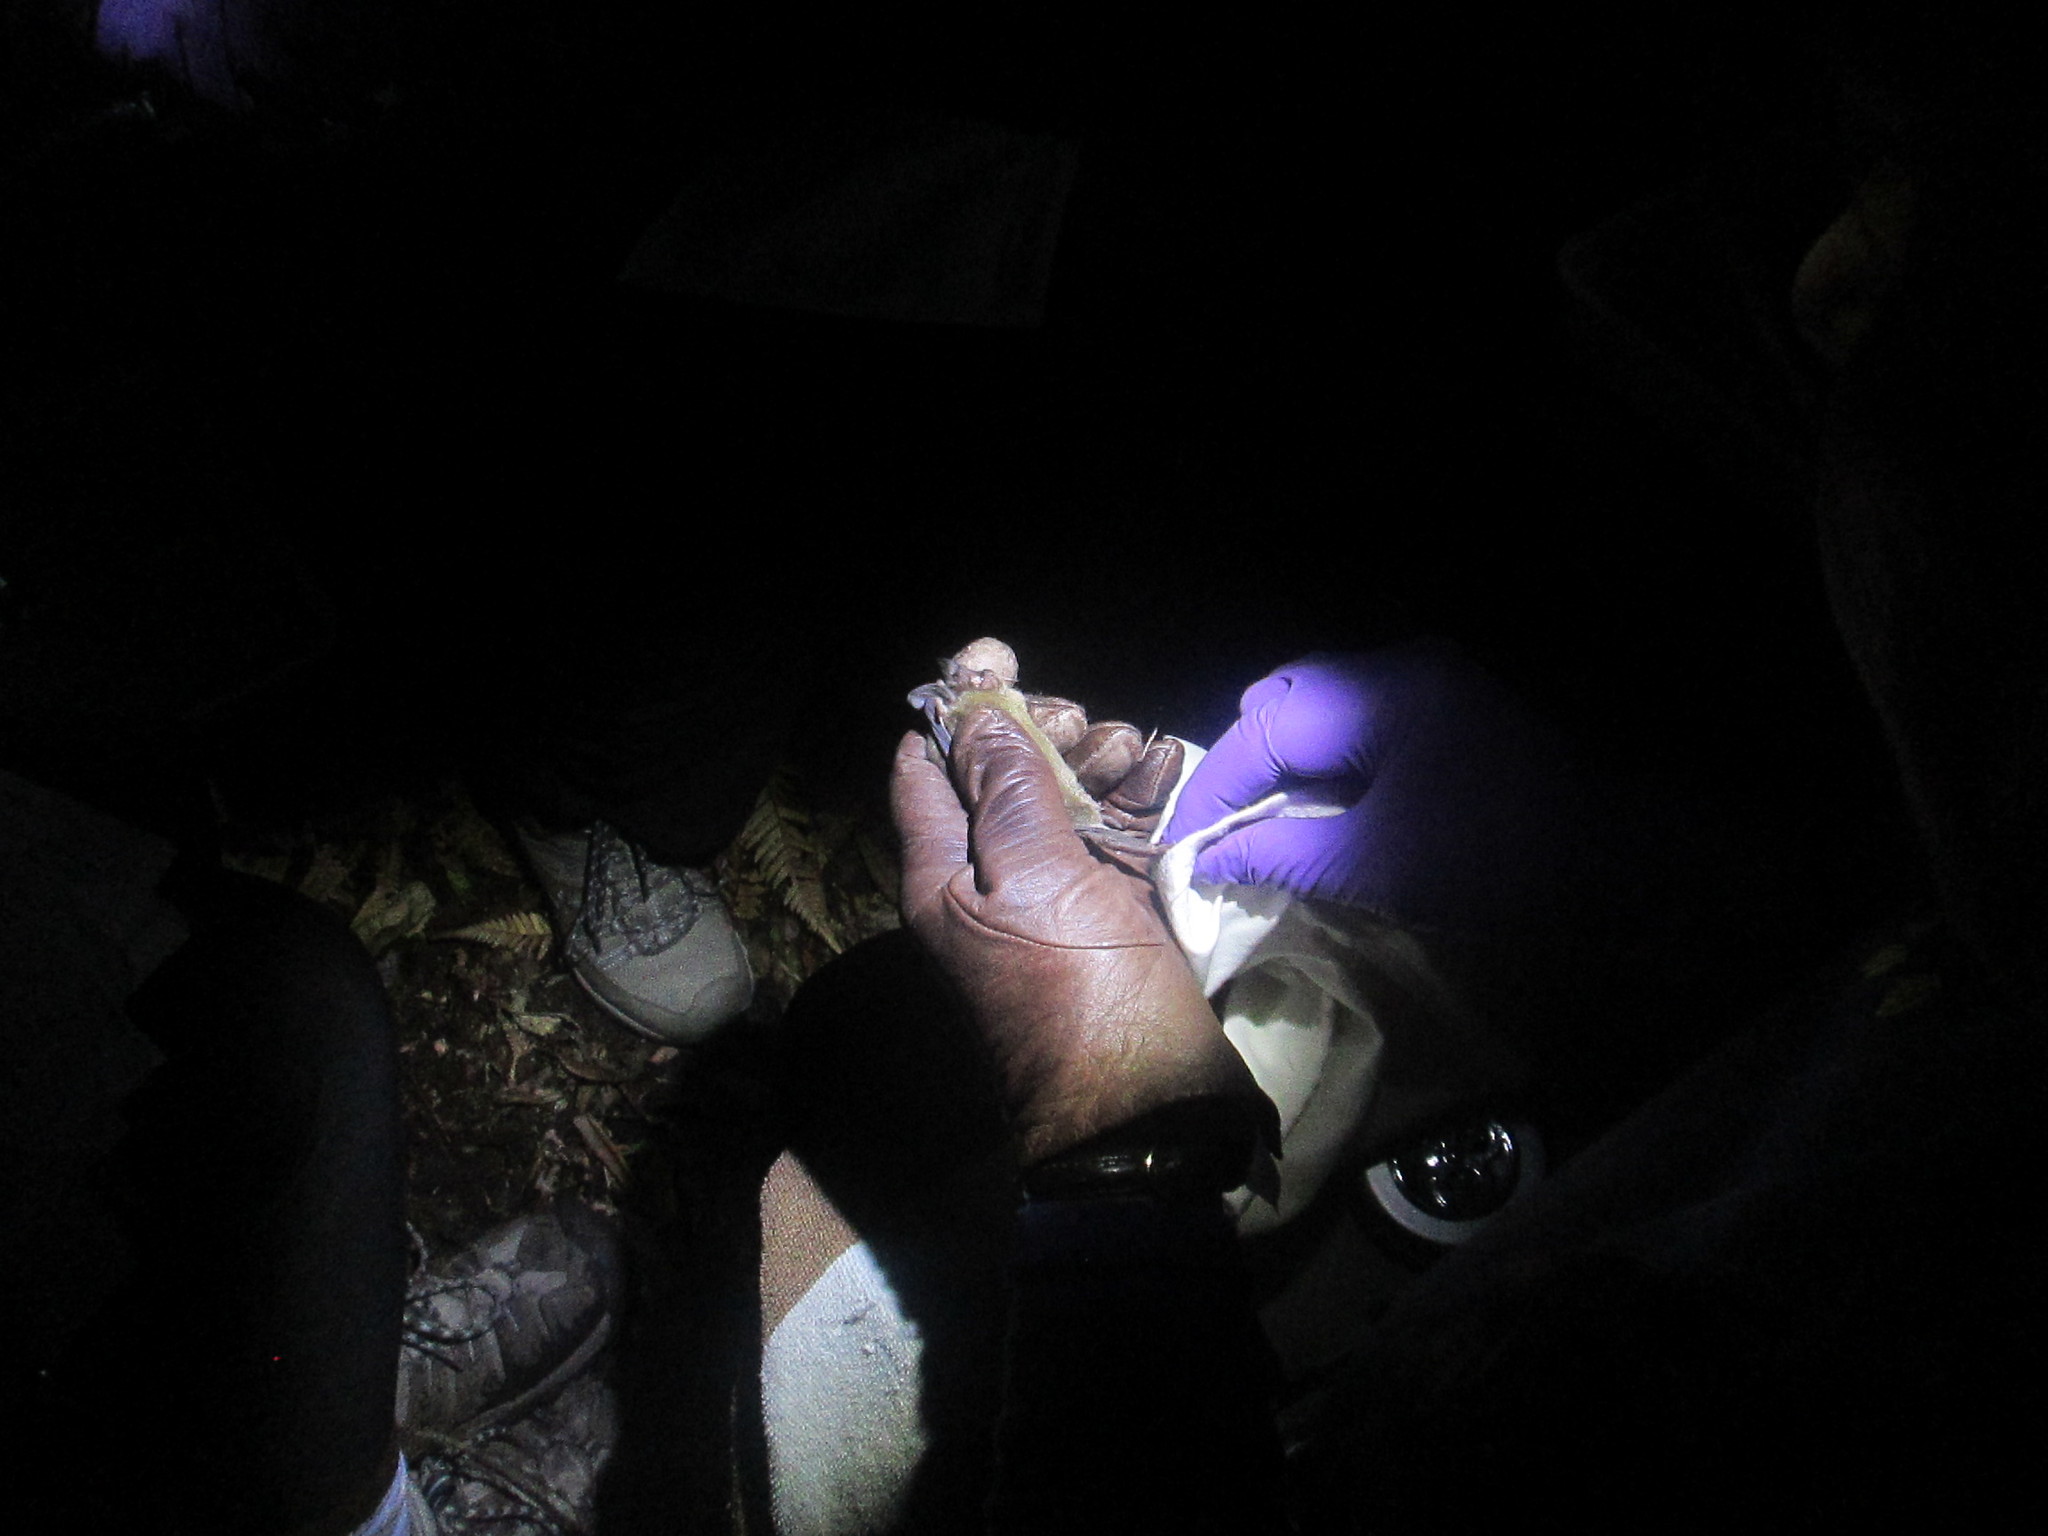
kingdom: Animalia
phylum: Chordata
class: Mammalia
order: Chiroptera
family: Mystacinidae
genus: Mystacina
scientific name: Mystacina tuberculata
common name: New zealand lesser short-tailed bat
